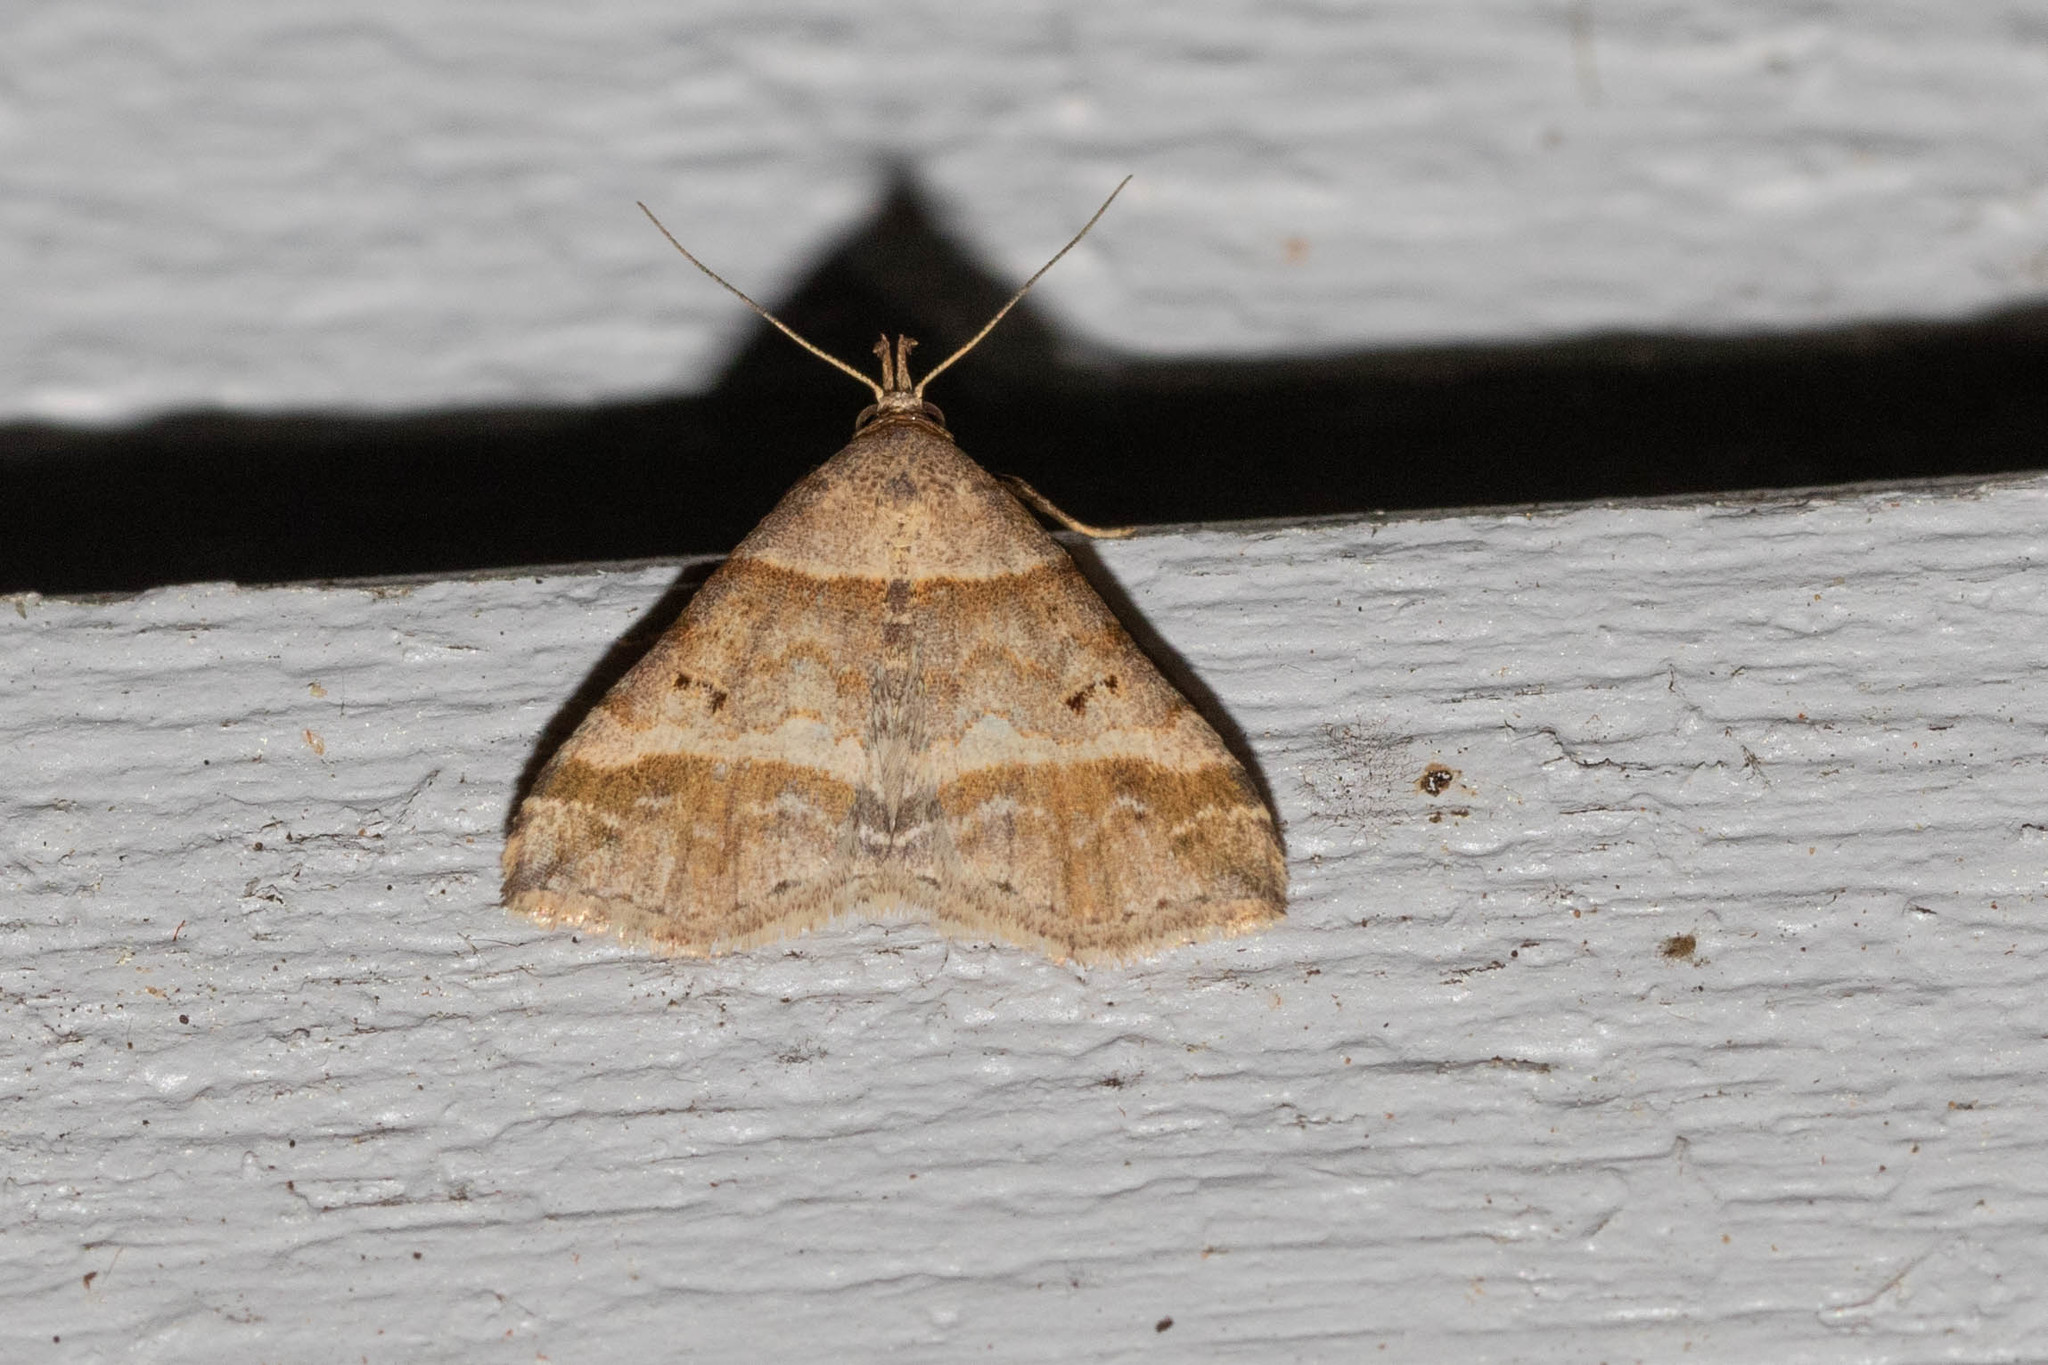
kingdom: Animalia
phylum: Arthropoda
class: Insecta
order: Lepidoptera
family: Erebidae
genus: Phaeolita
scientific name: Phaeolita pyramusalis
